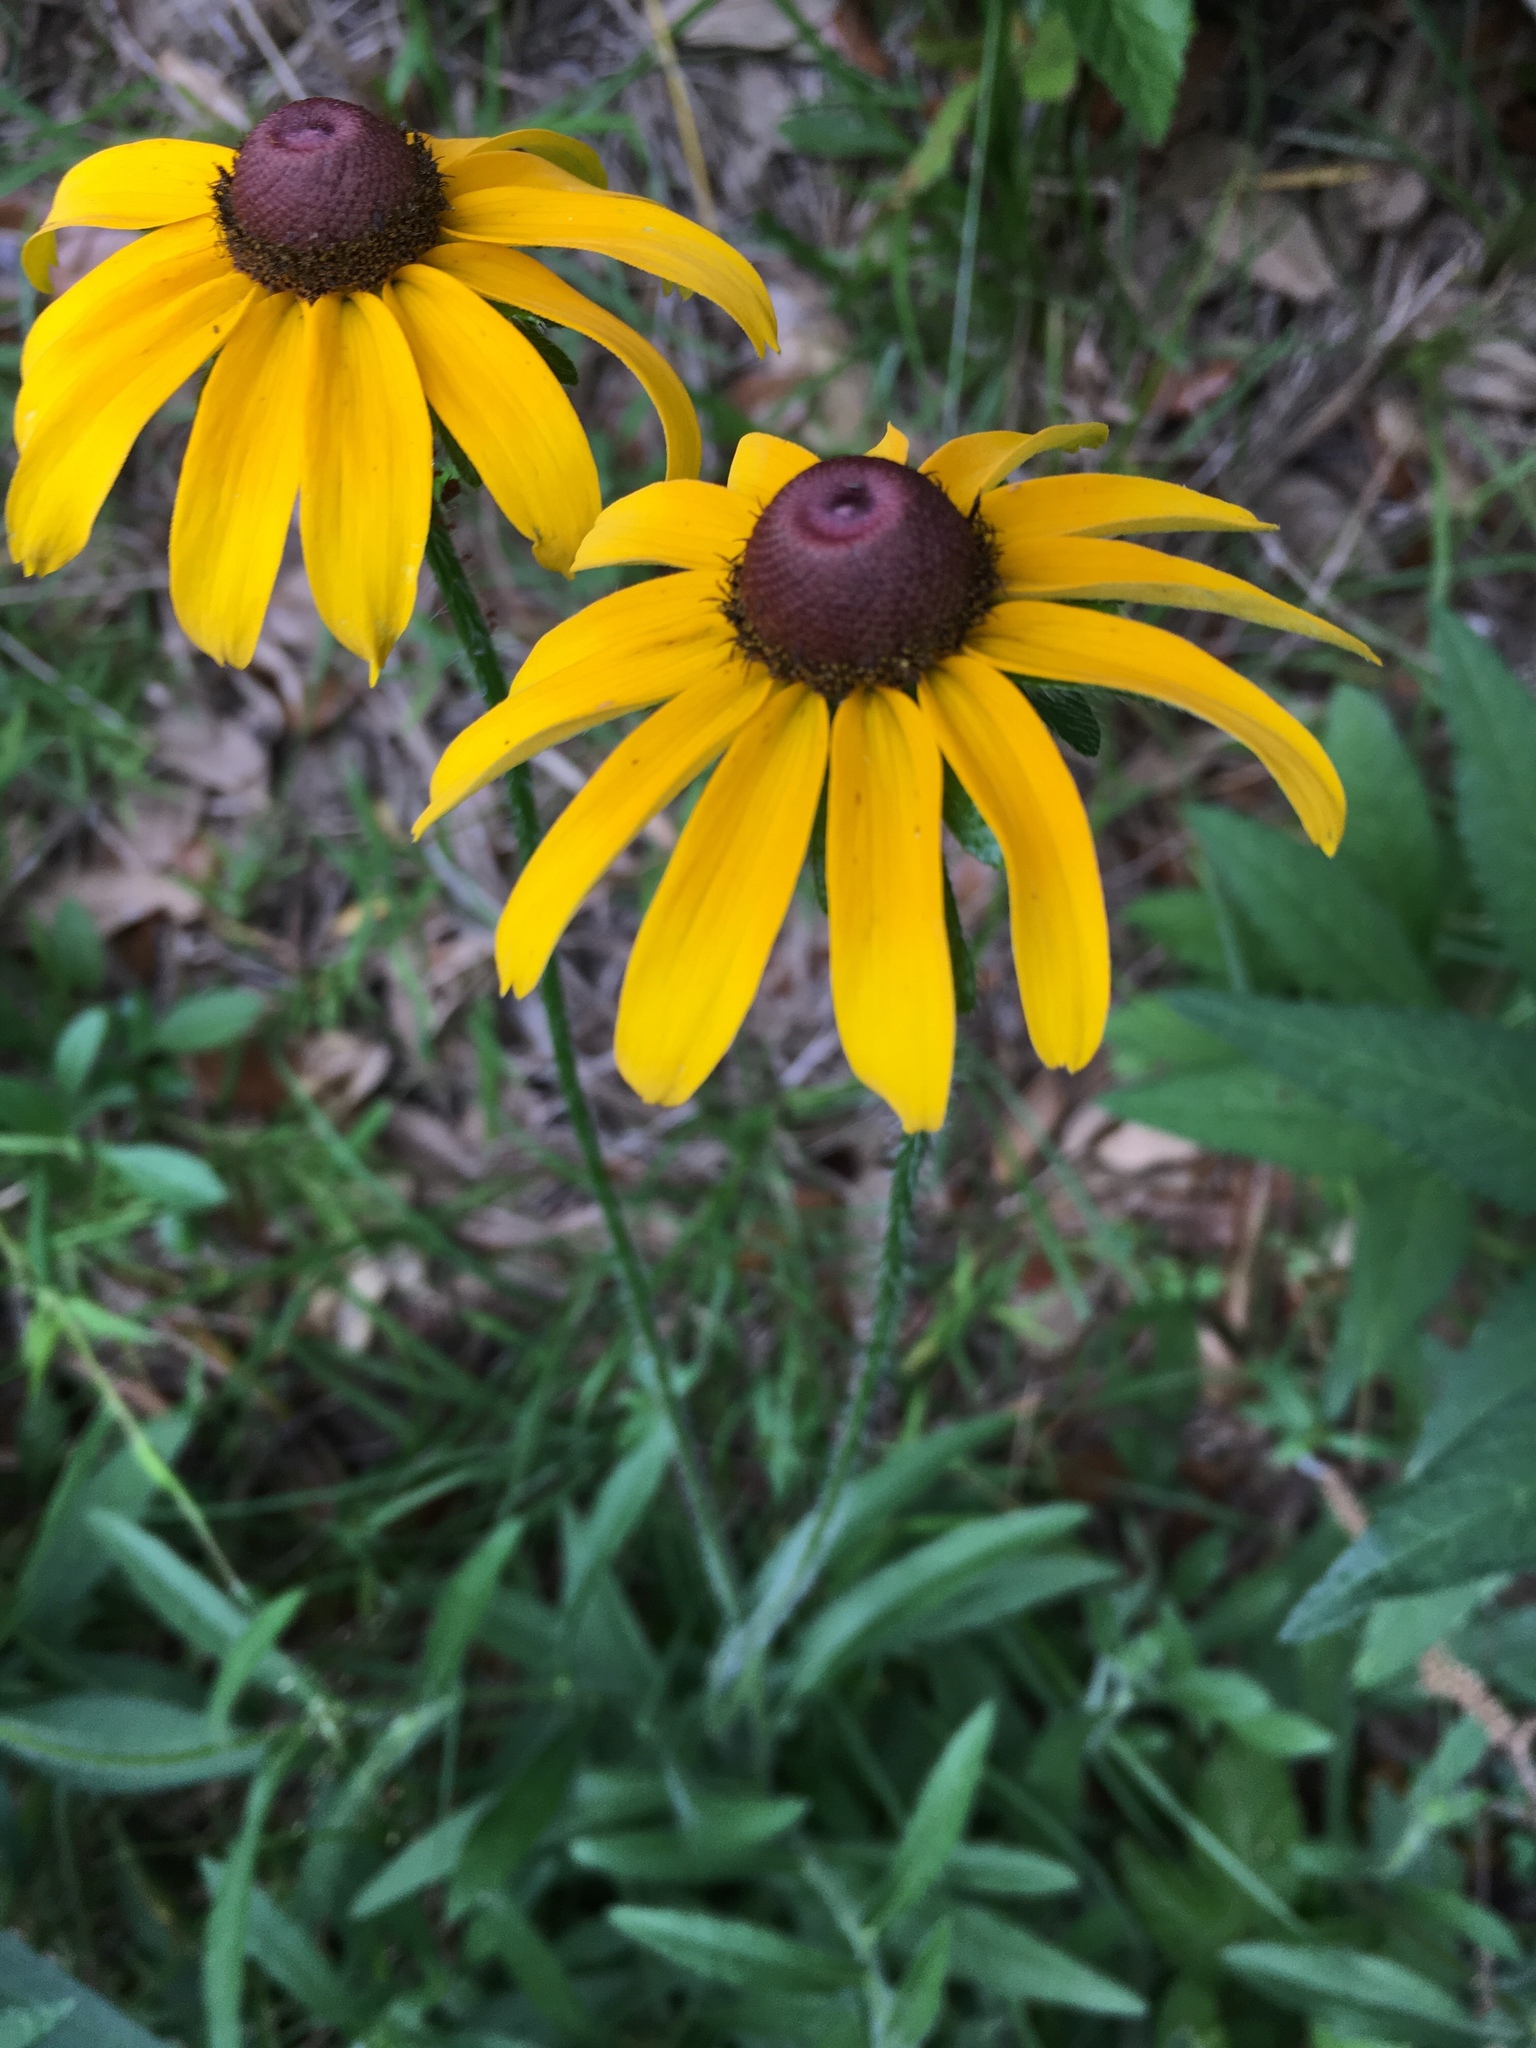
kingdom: Plantae
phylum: Tracheophyta
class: Magnoliopsida
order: Asterales
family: Asteraceae
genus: Rudbeckia
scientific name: Rudbeckia hirta
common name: Black-eyed-susan
